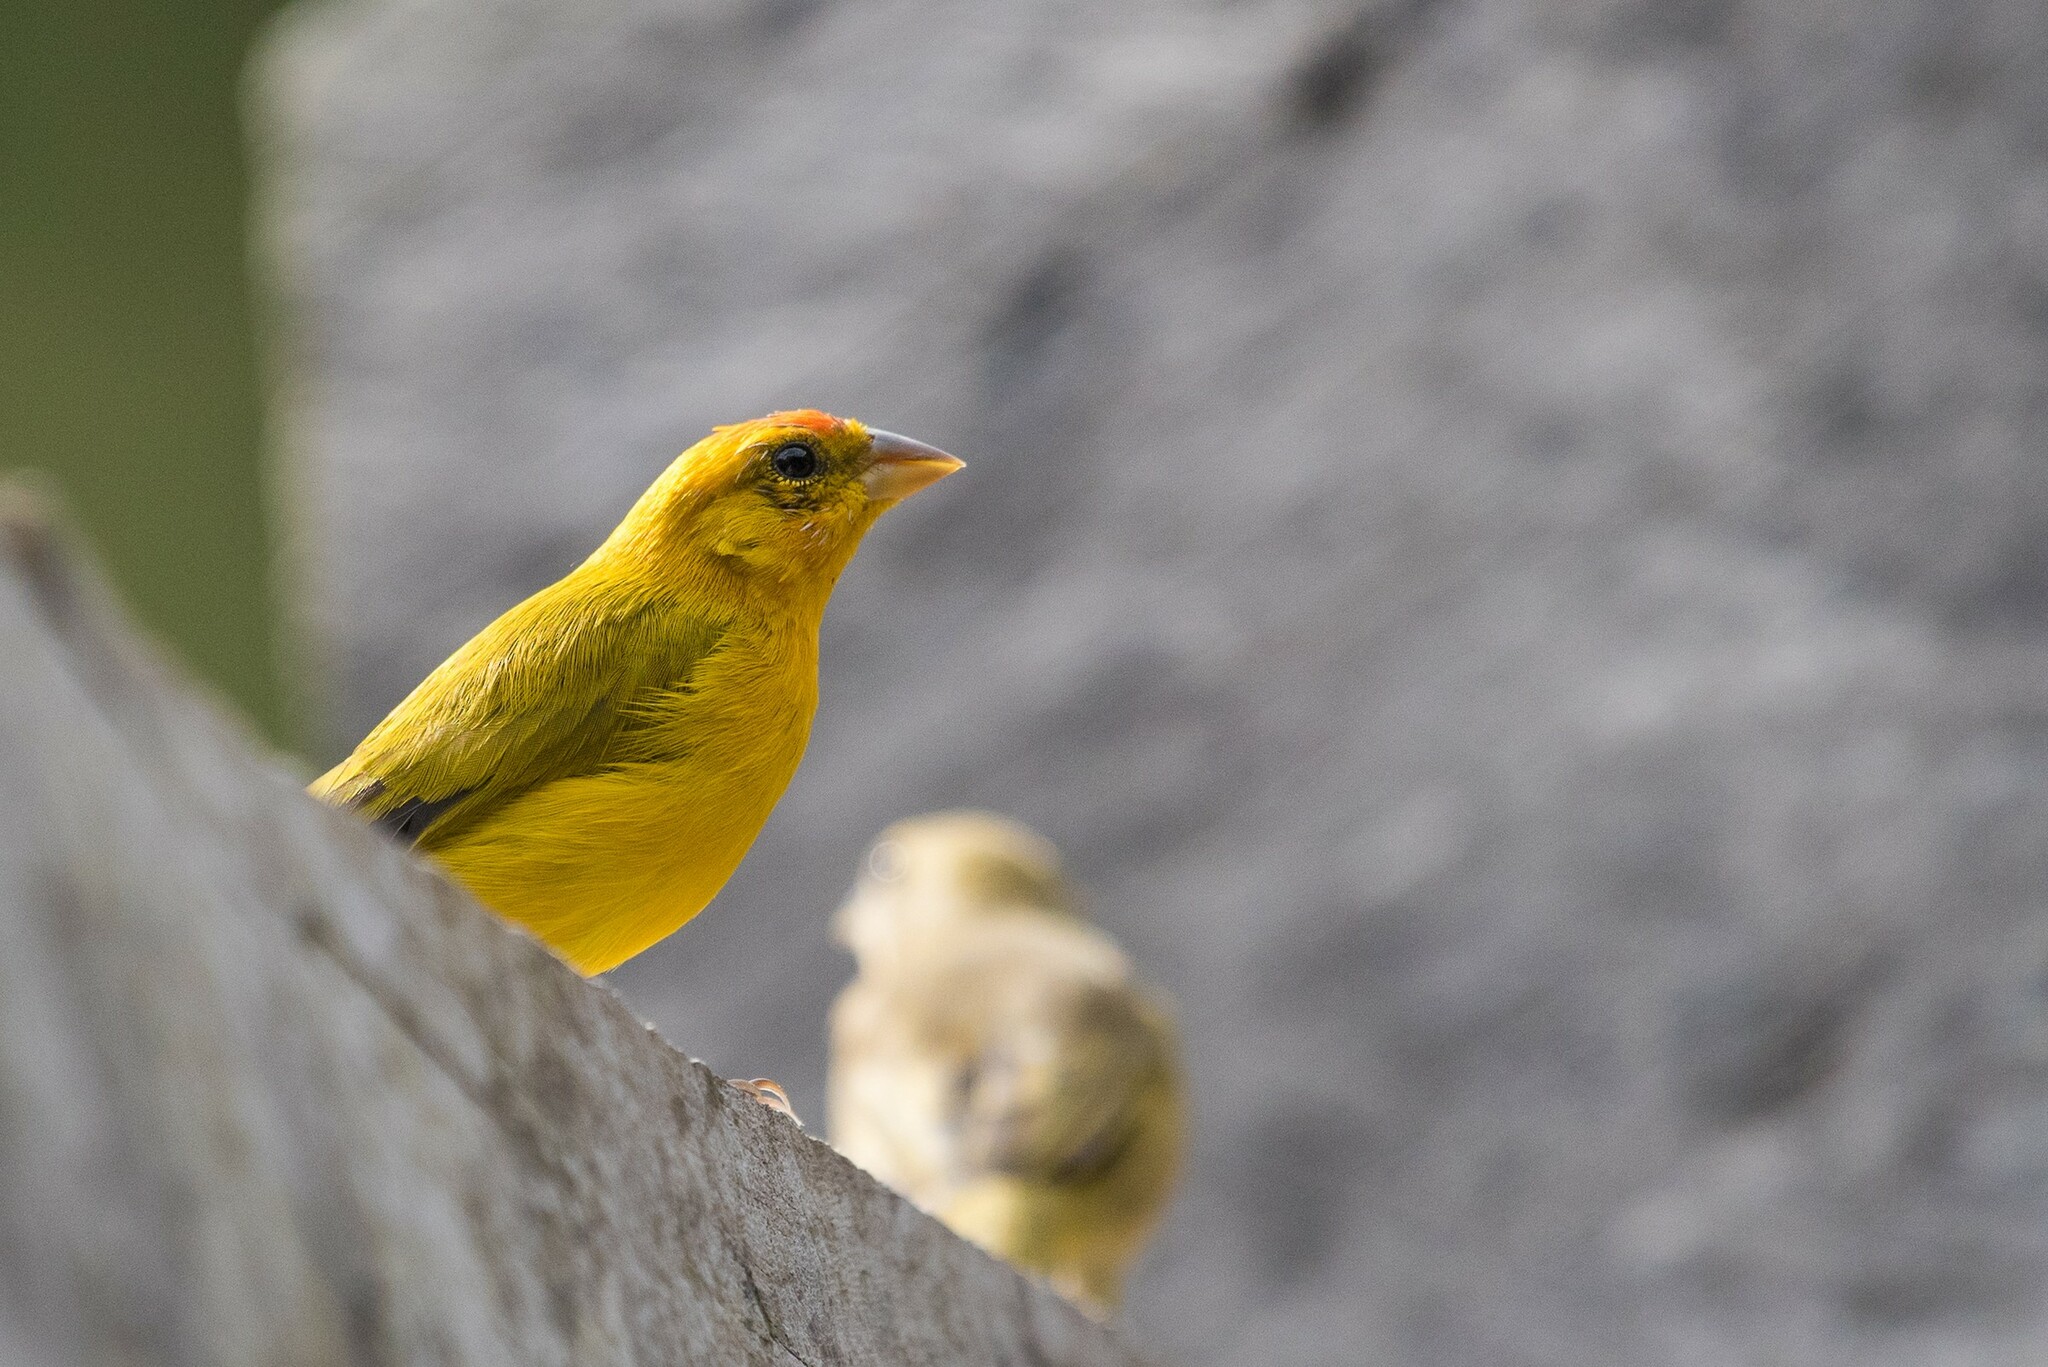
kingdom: Animalia
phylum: Chordata
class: Aves
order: Passeriformes
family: Thraupidae
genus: Sicalis
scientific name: Sicalis columbiana
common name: Orange-fronted yellow-finch
